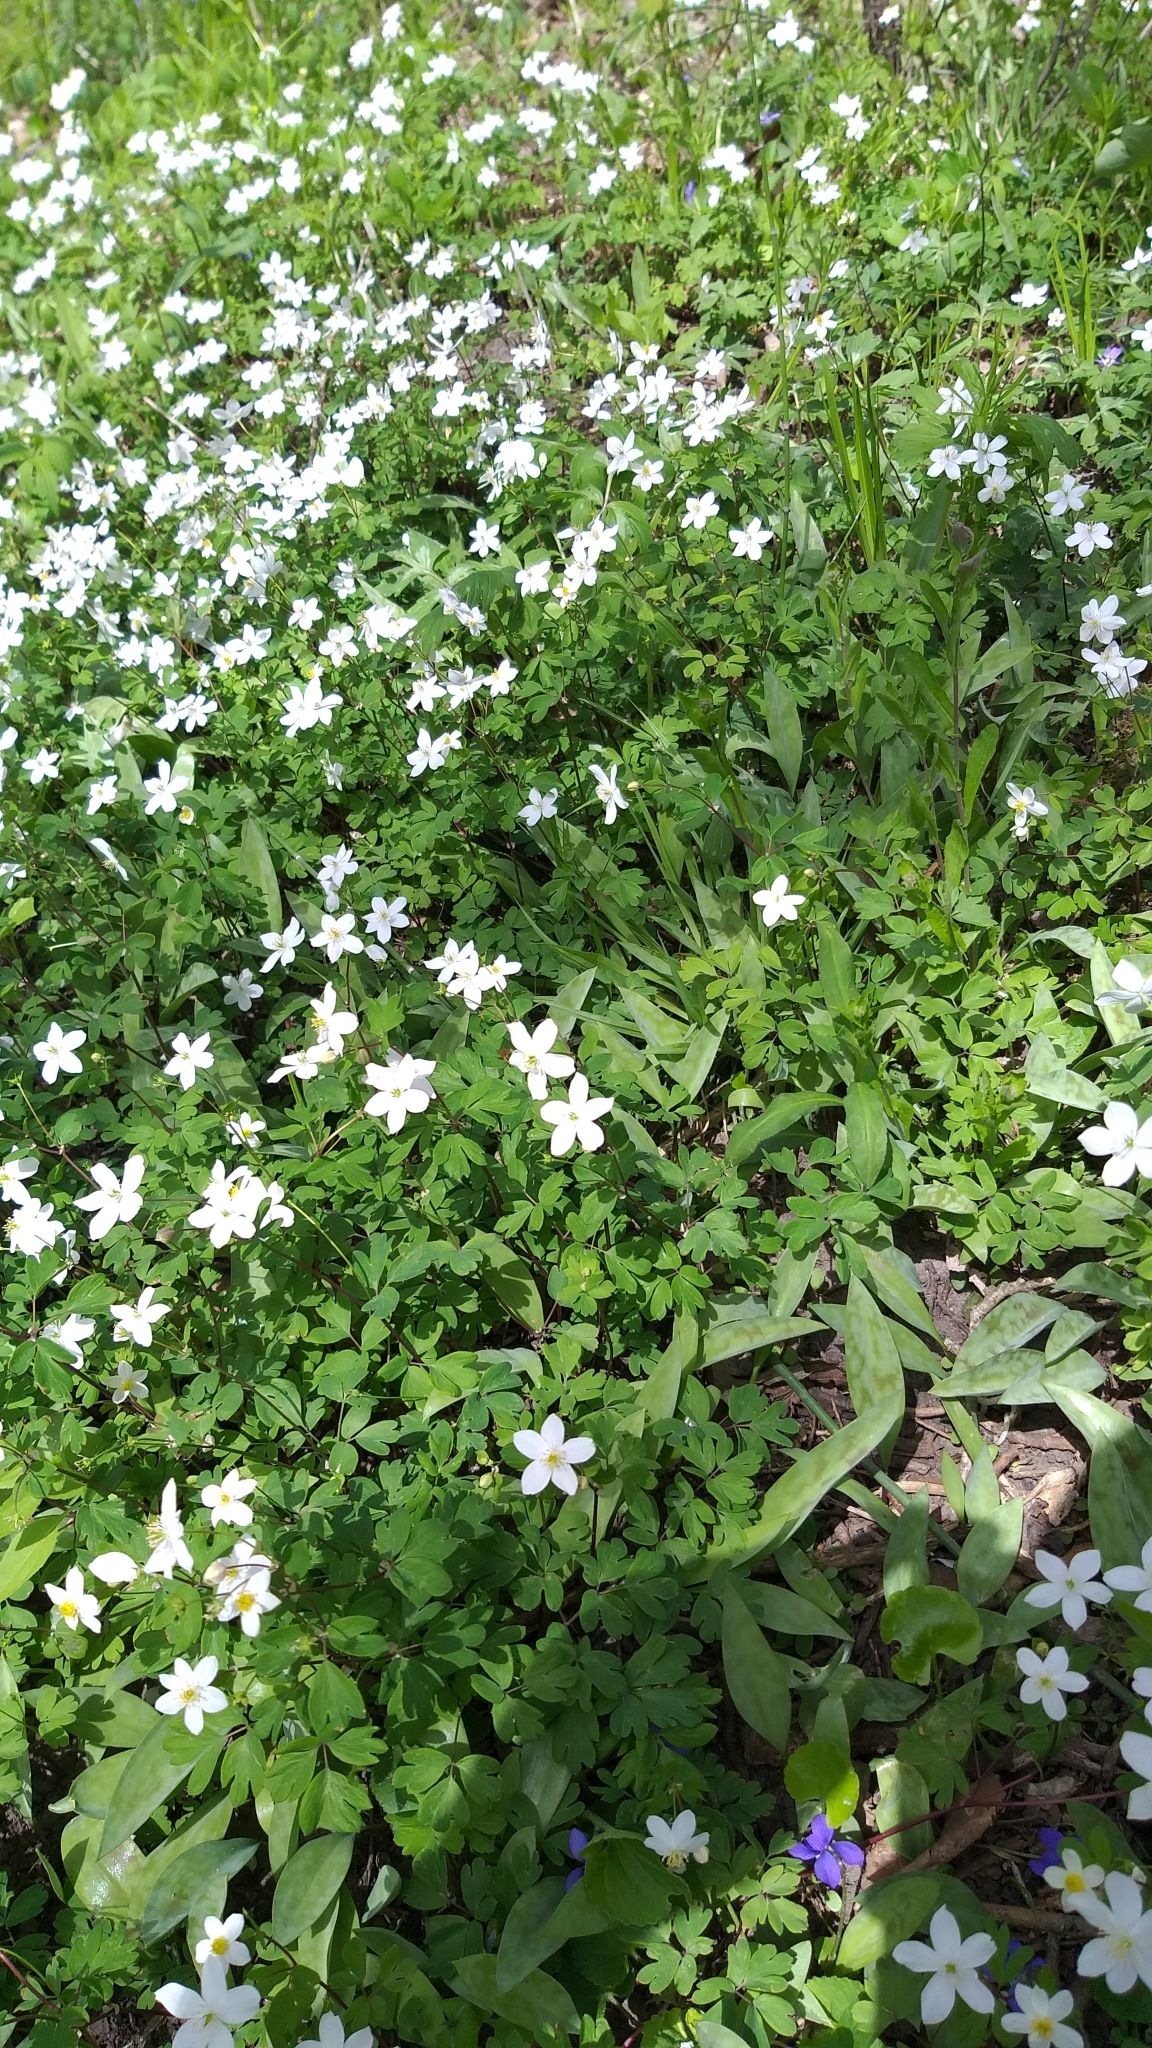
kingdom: Plantae
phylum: Tracheophyta
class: Magnoliopsida
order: Ranunculales
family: Ranunculaceae
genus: Enemion
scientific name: Enemion biternatum
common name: Eastern false rue-anemone
